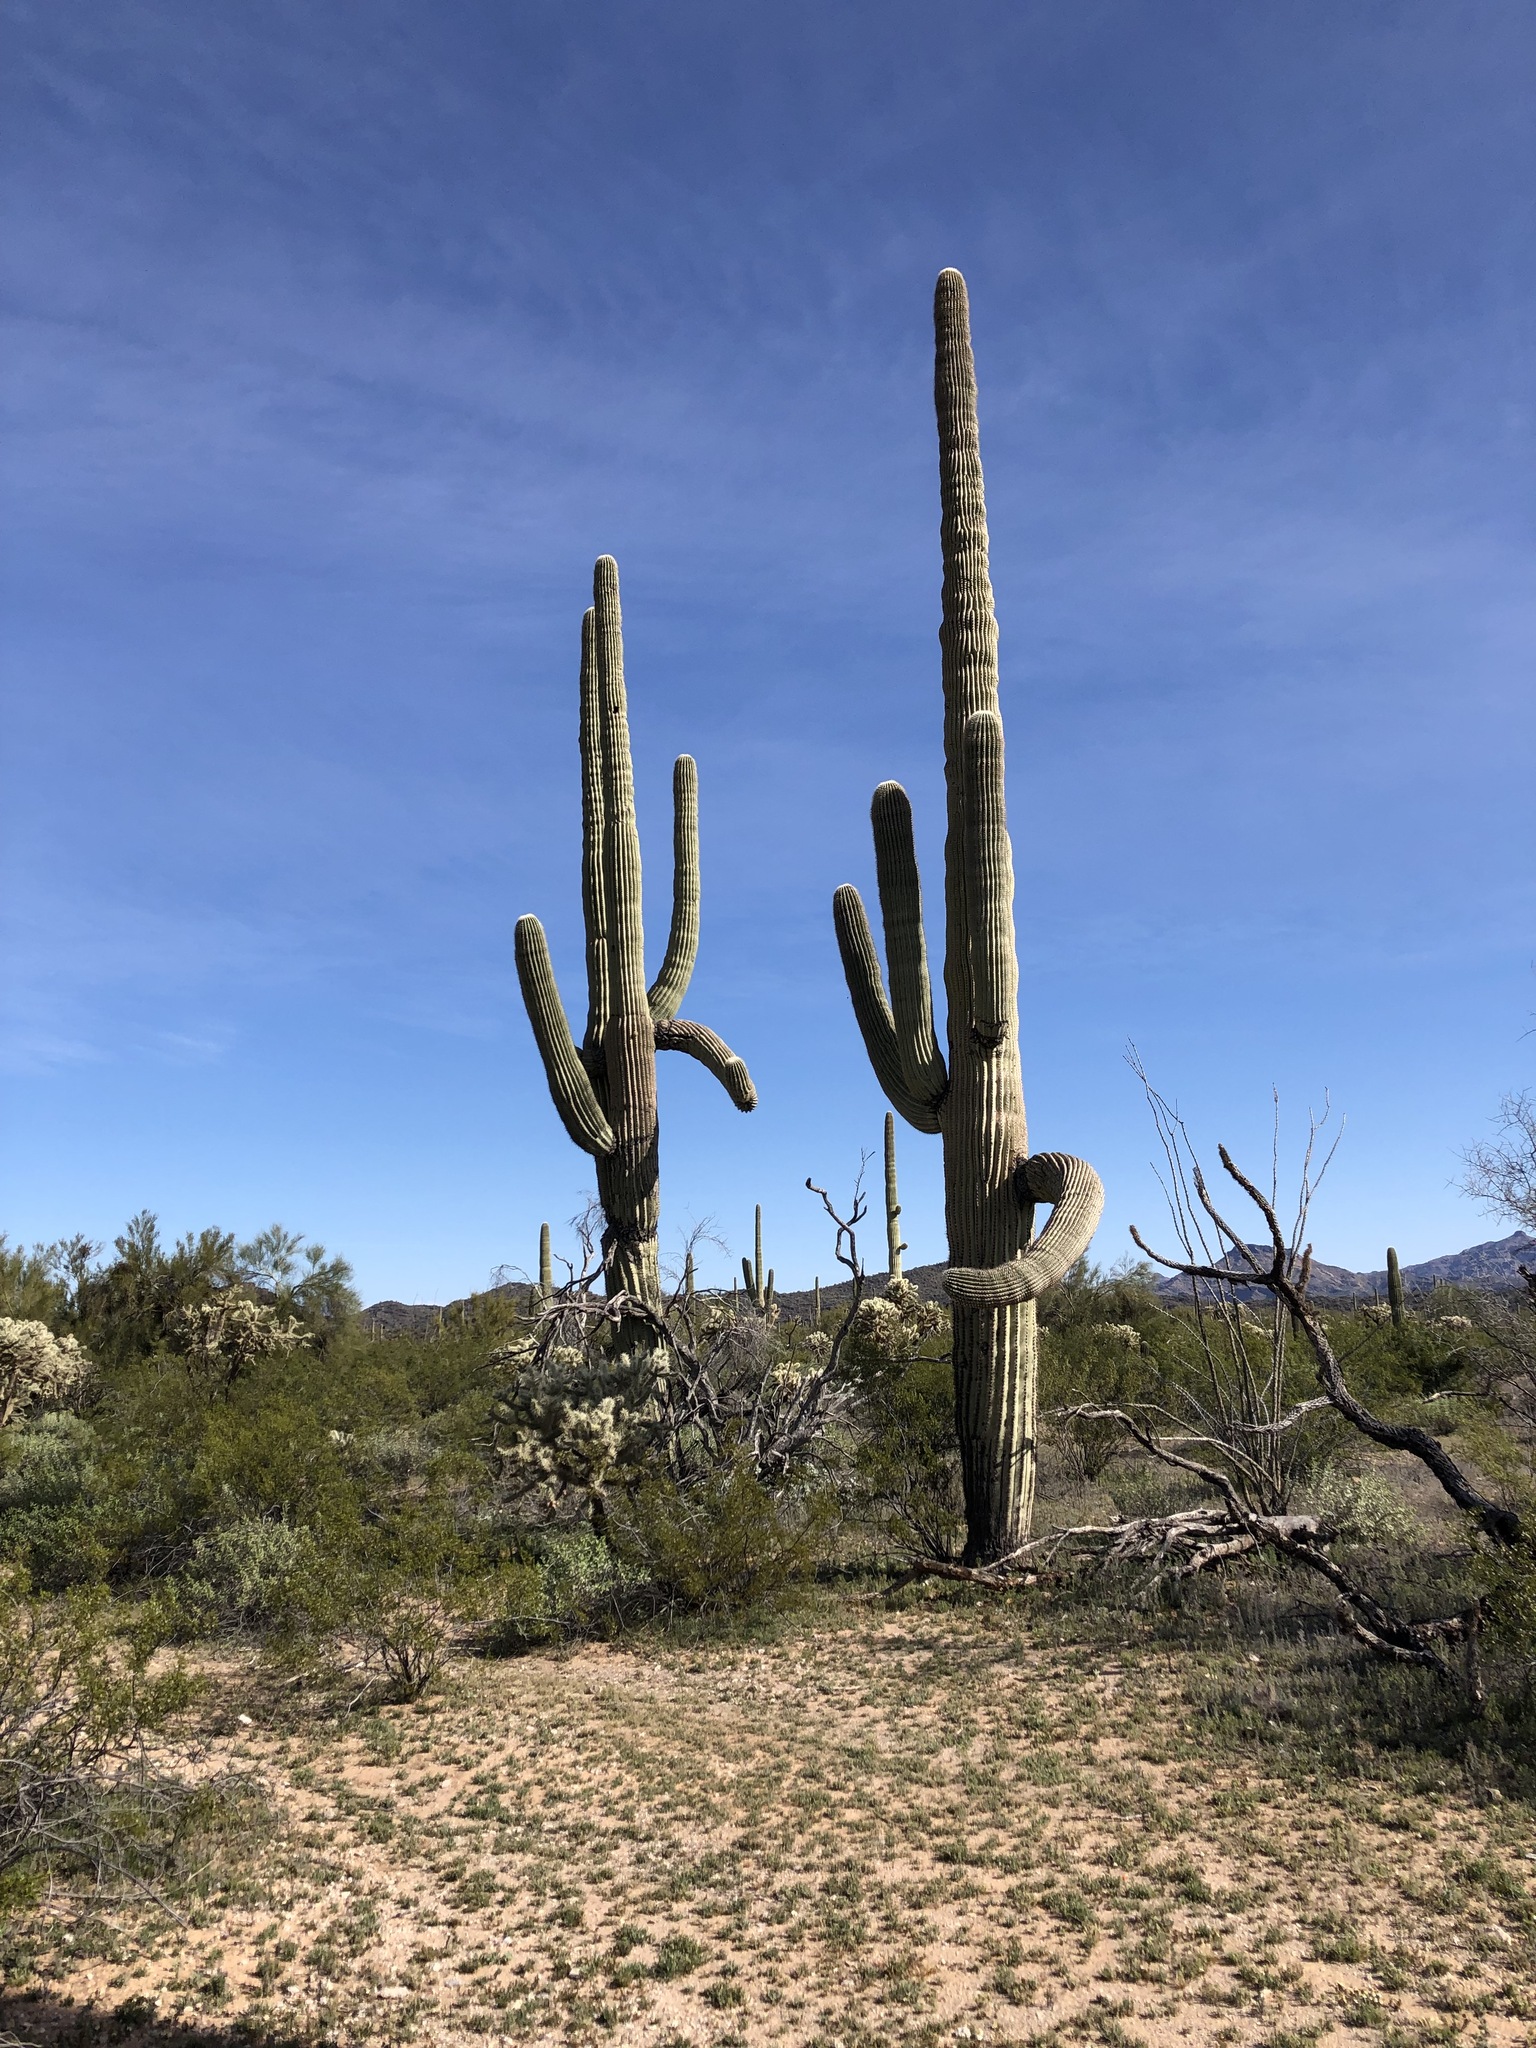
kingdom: Plantae
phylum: Tracheophyta
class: Magnoliopsida
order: Caryophyllales
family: Cactaceae
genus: Carnegiea
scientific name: Carnegiea gigantea
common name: Saguaro
